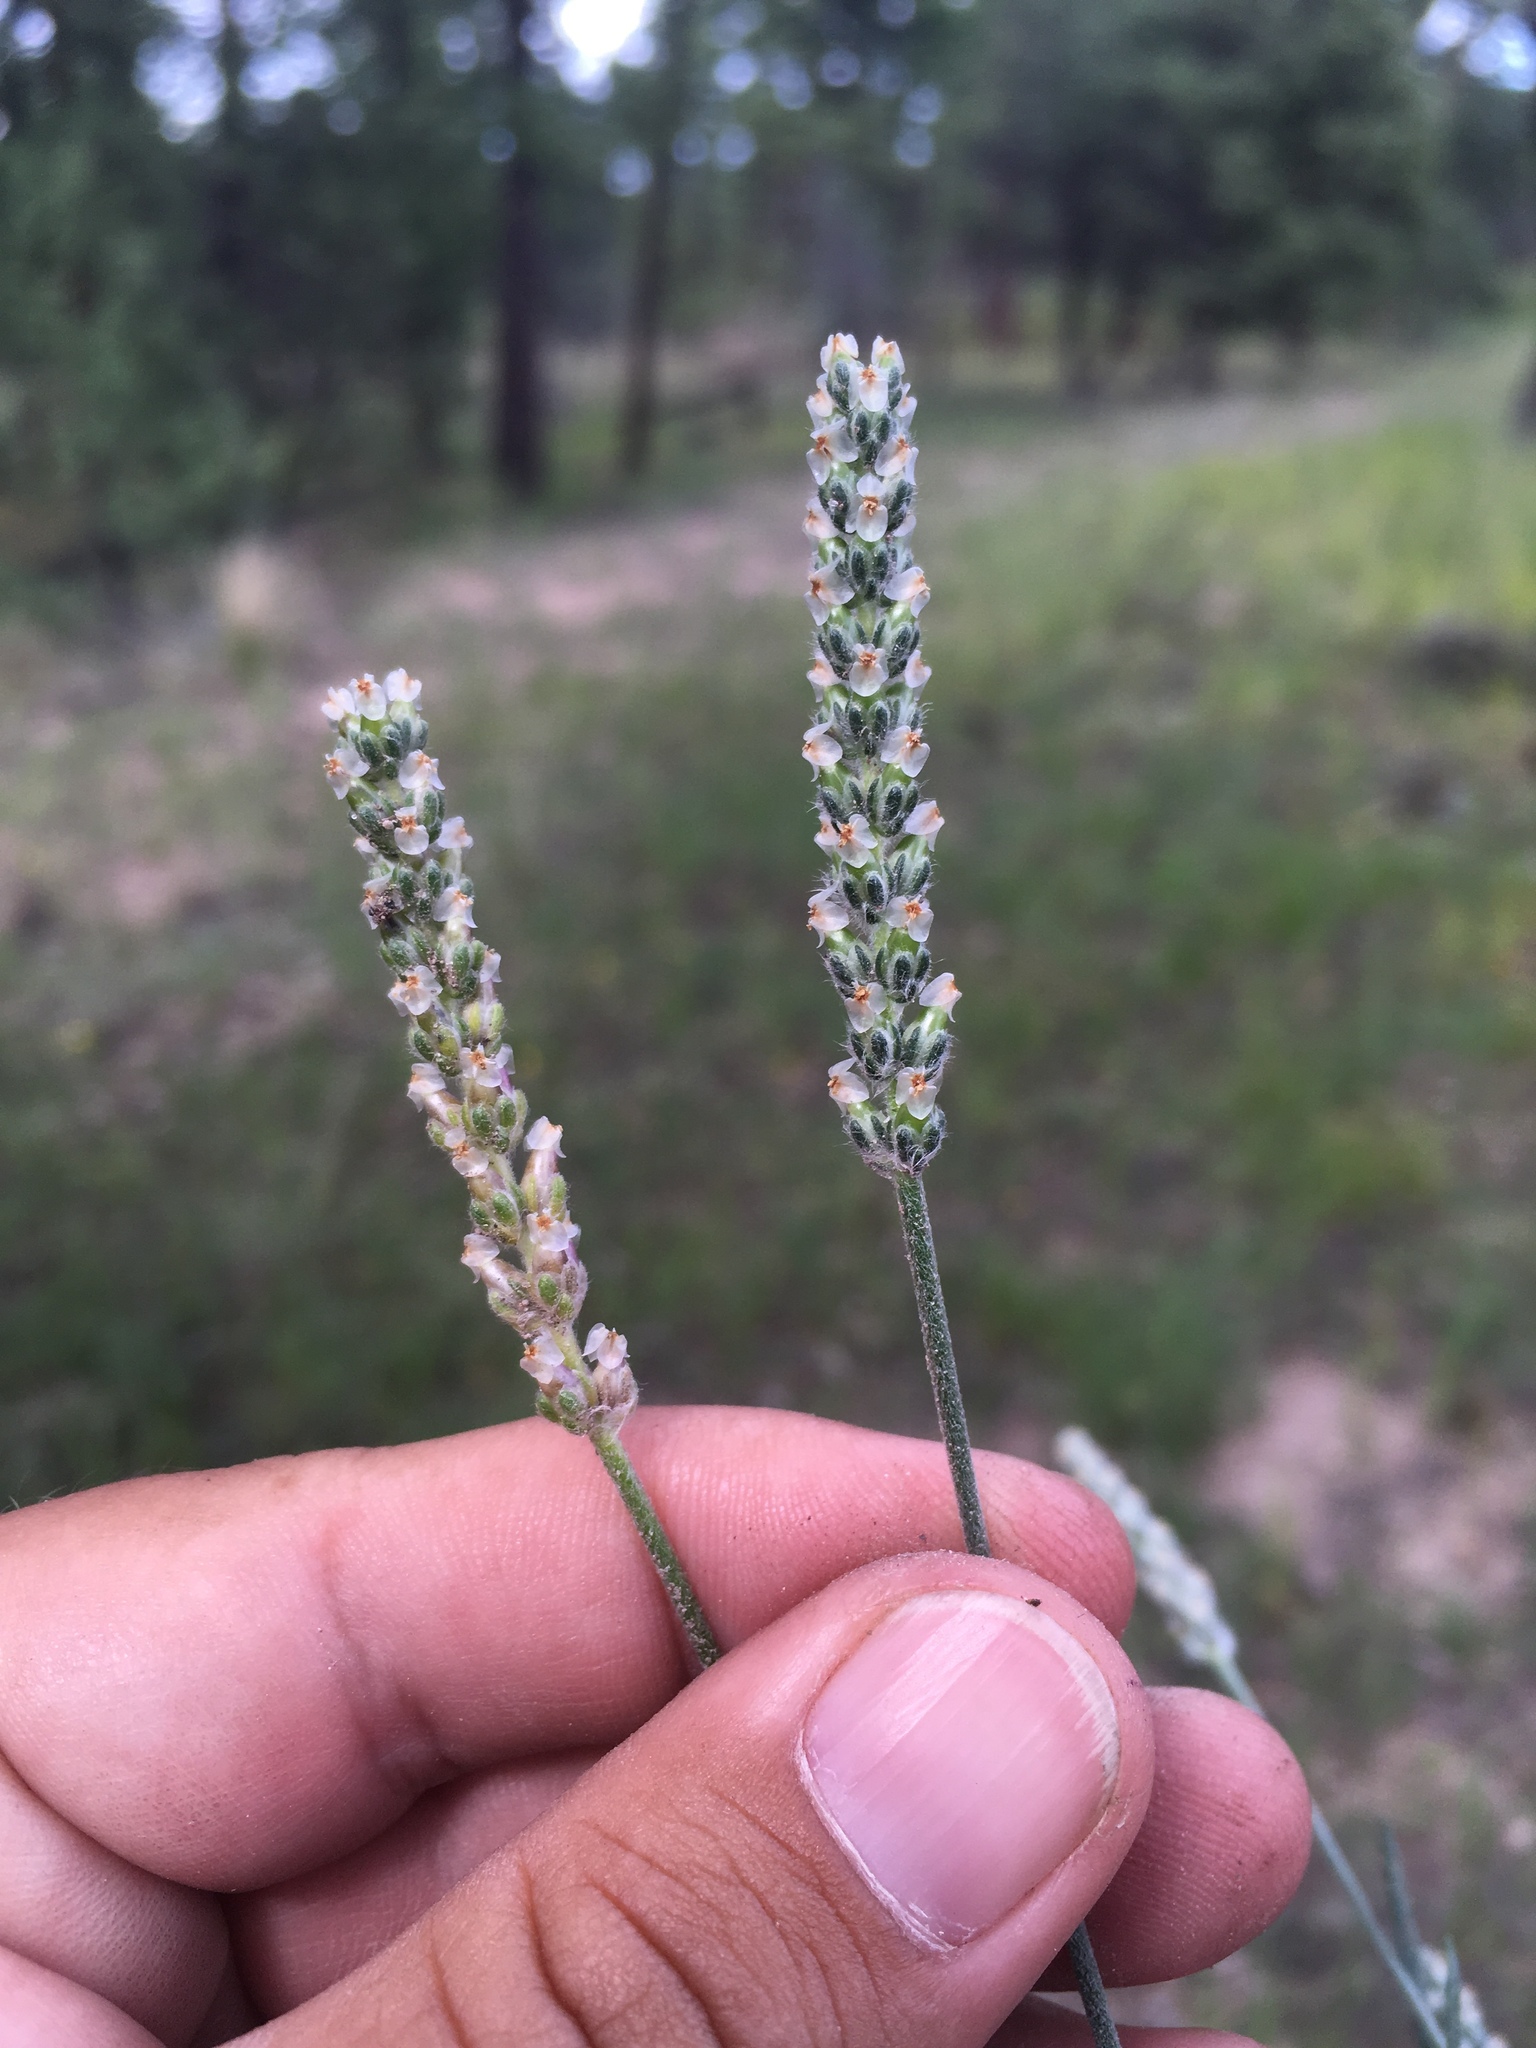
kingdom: Plantae
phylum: Tracheophyta
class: Magnoliopsida
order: Lamiales
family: Plantaginaceae
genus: Plantago
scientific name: Plantago argyrea
